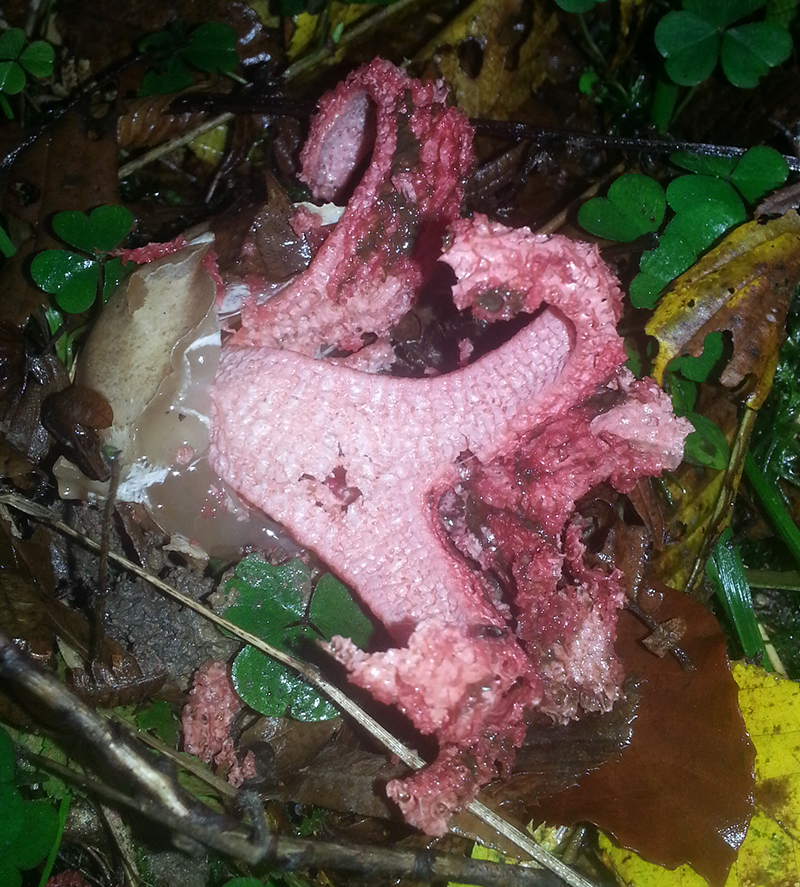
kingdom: Fungi
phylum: Basidiomycota
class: Agaricomycetes
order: Phallales
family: Phallaceae
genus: Clathrus
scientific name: Clathrus archeri
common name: Devil's fingers
